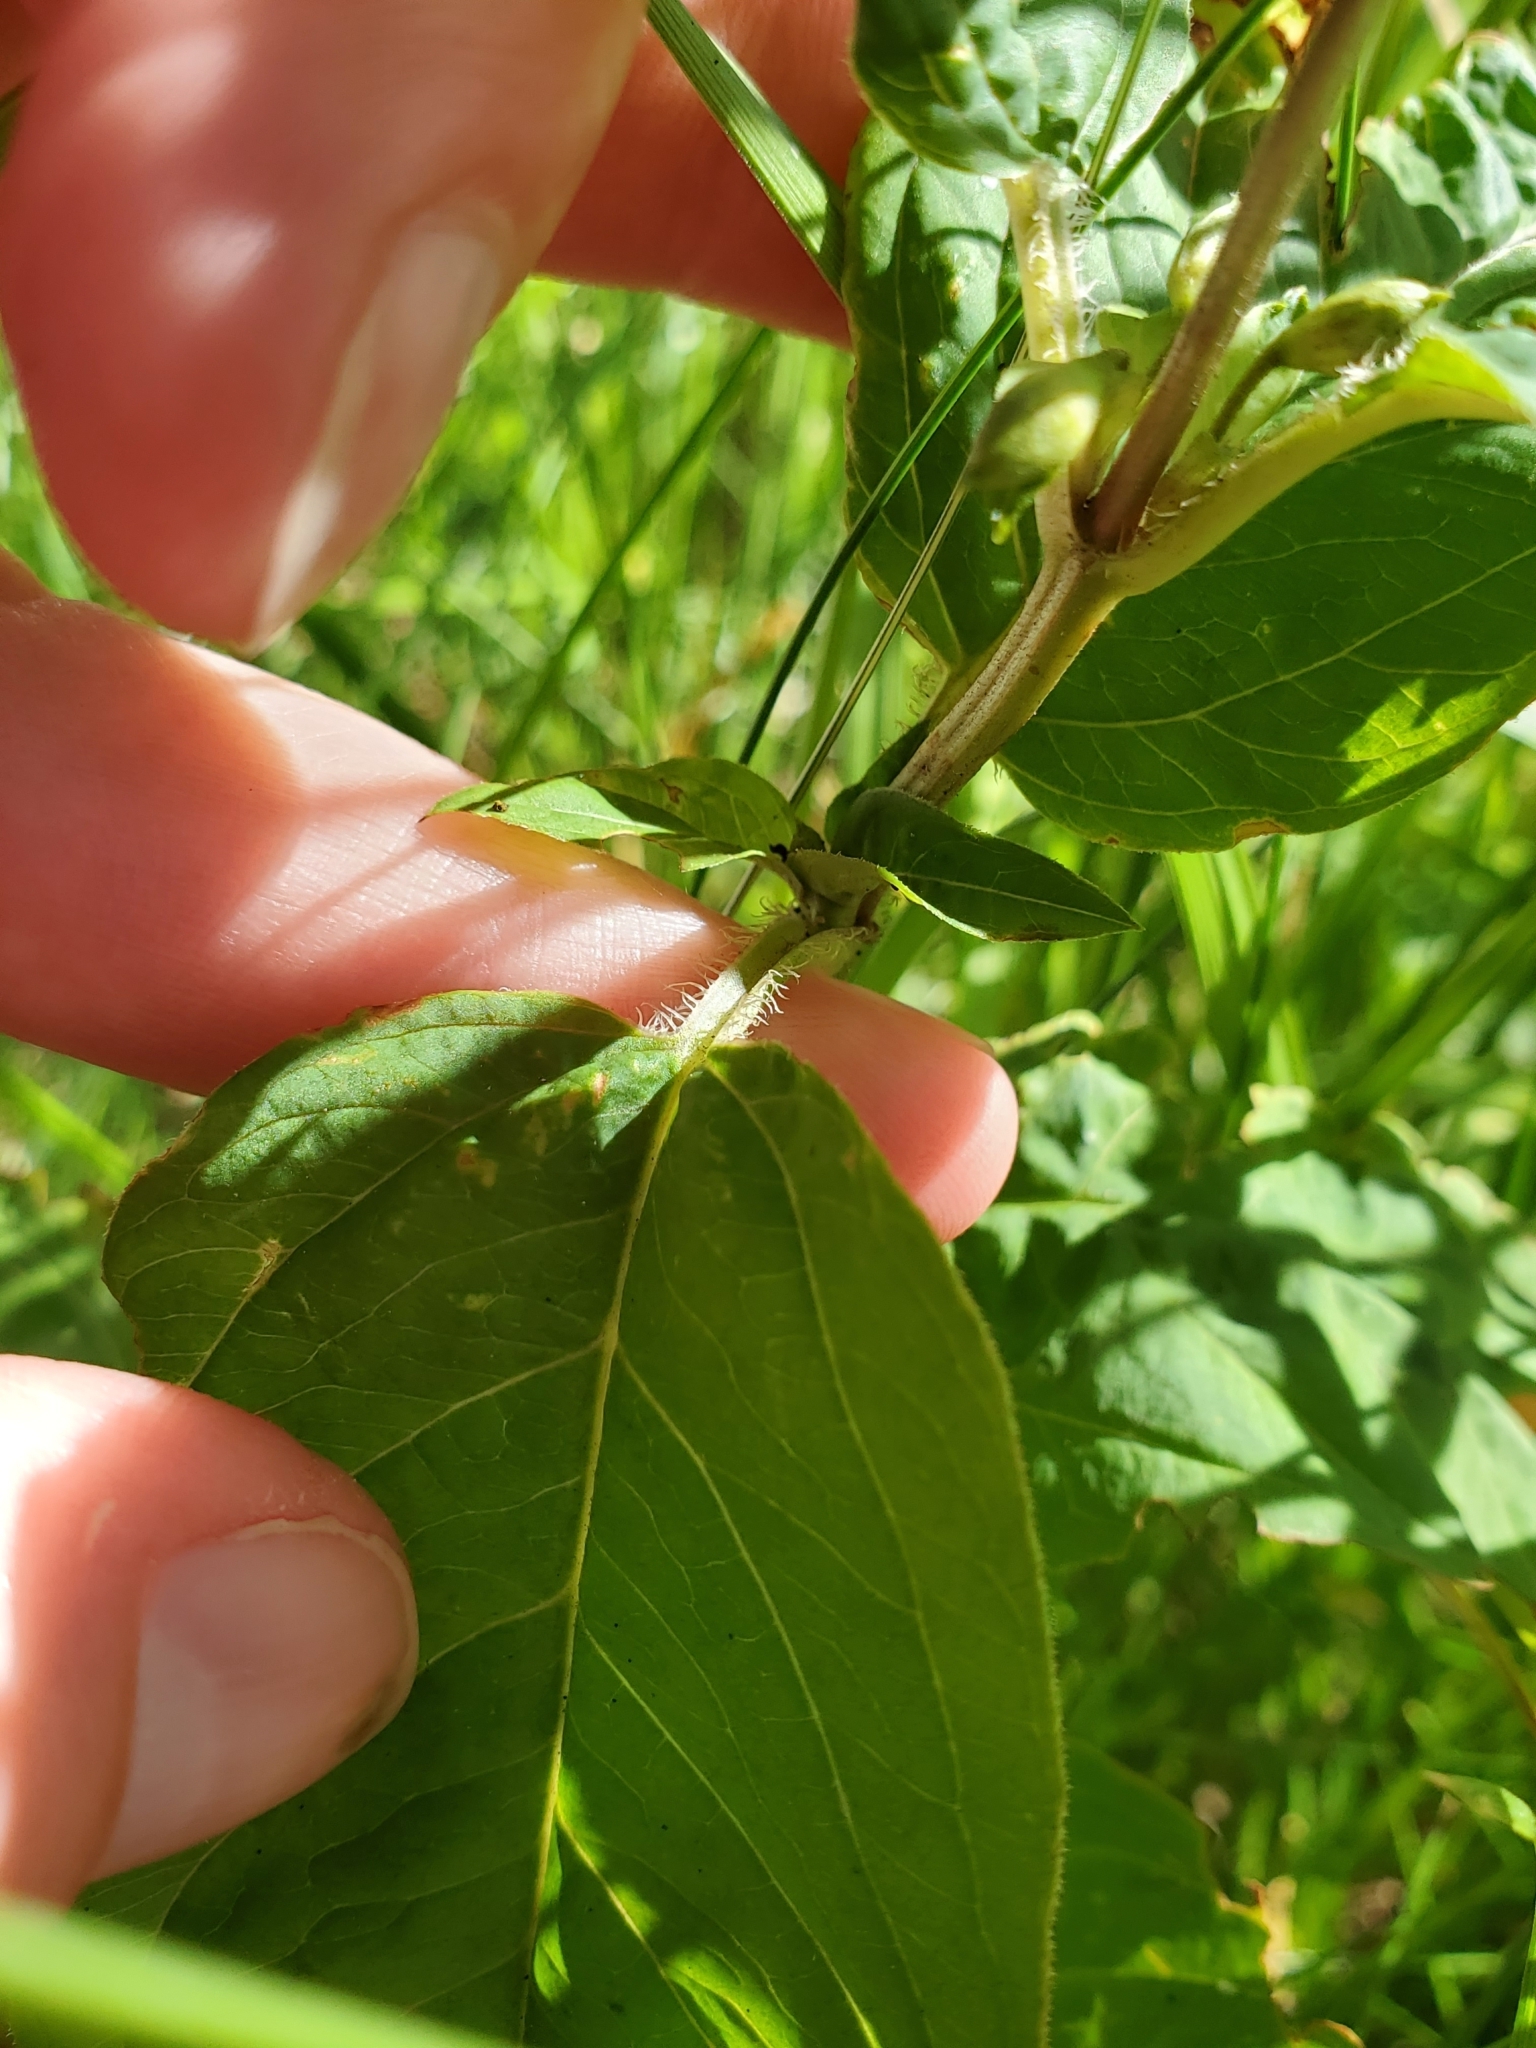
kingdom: Plantae
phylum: Tracheophyta
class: Magnoliopsida
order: Ericales
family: Primulaceae
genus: Lysimachia
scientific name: Lysimachia ciliata
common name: Fringed loosestrife
